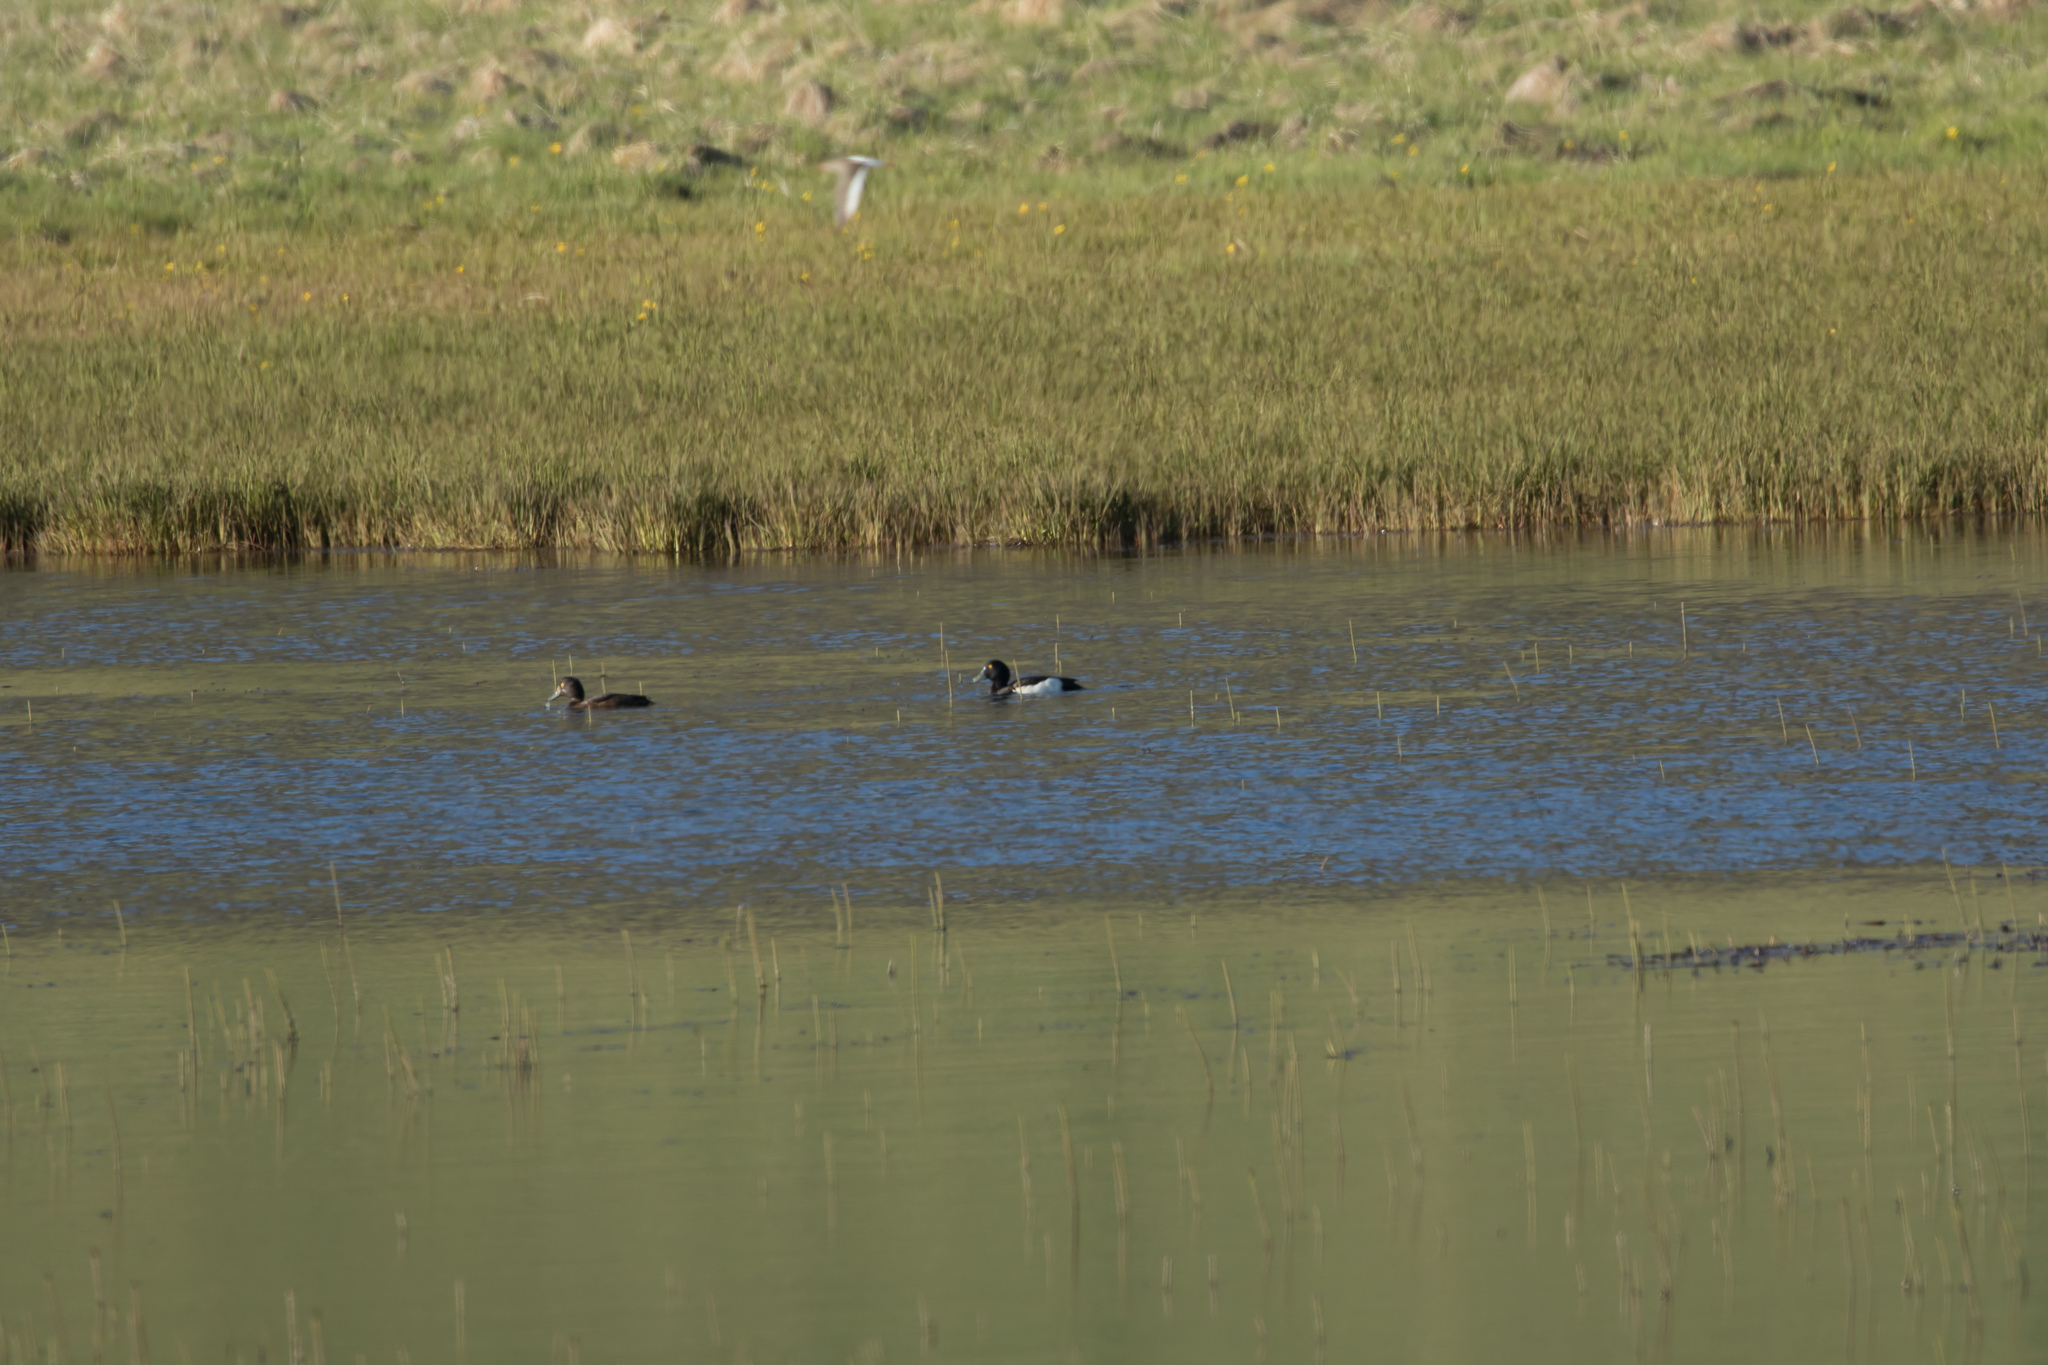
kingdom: Animalia
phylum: Chordata
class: Aves
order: Anseriformes
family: Anatidae
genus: Aythya
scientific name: Aythya fuligula
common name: Tufted duck
